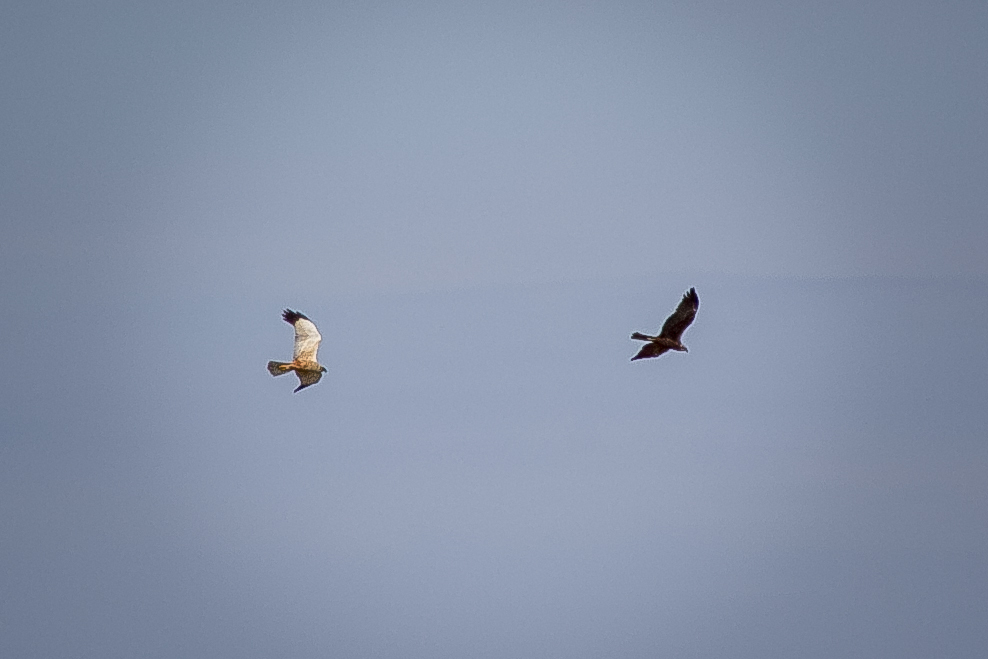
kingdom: Animalia
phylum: Chordata
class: Aves
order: Accipitriformes
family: Accipitridae
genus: Circus
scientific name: Circus aeruginosus
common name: Western marsh harrier
